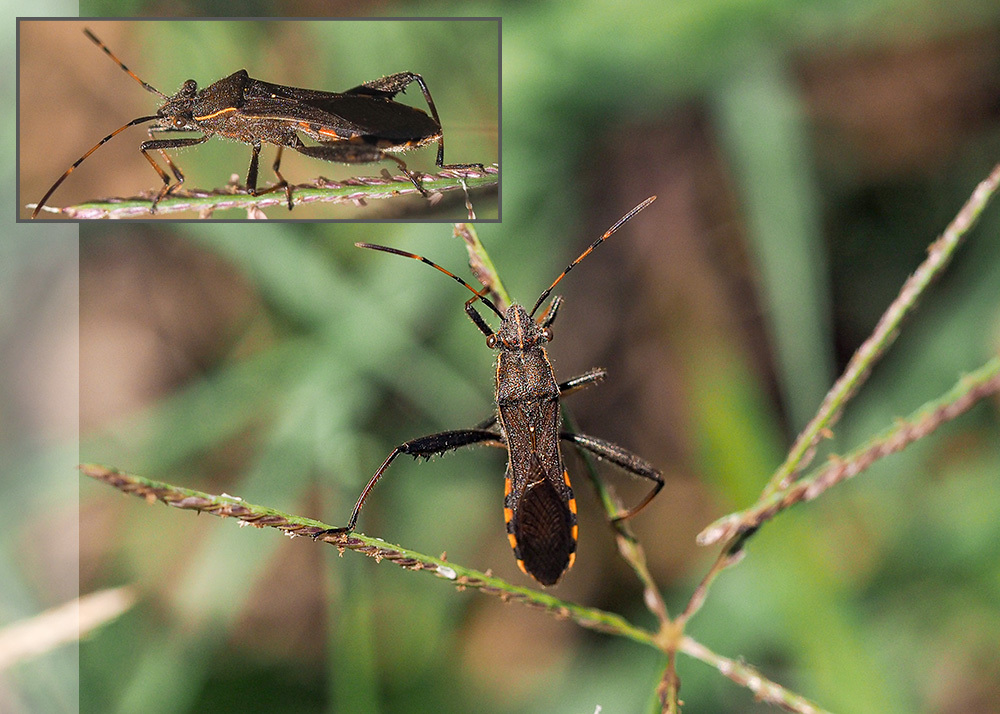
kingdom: Animalia
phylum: Arthropoda
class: Insecta
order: Hemiptera
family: Alydidae
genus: Camptopus
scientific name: Camptopus lateralis
